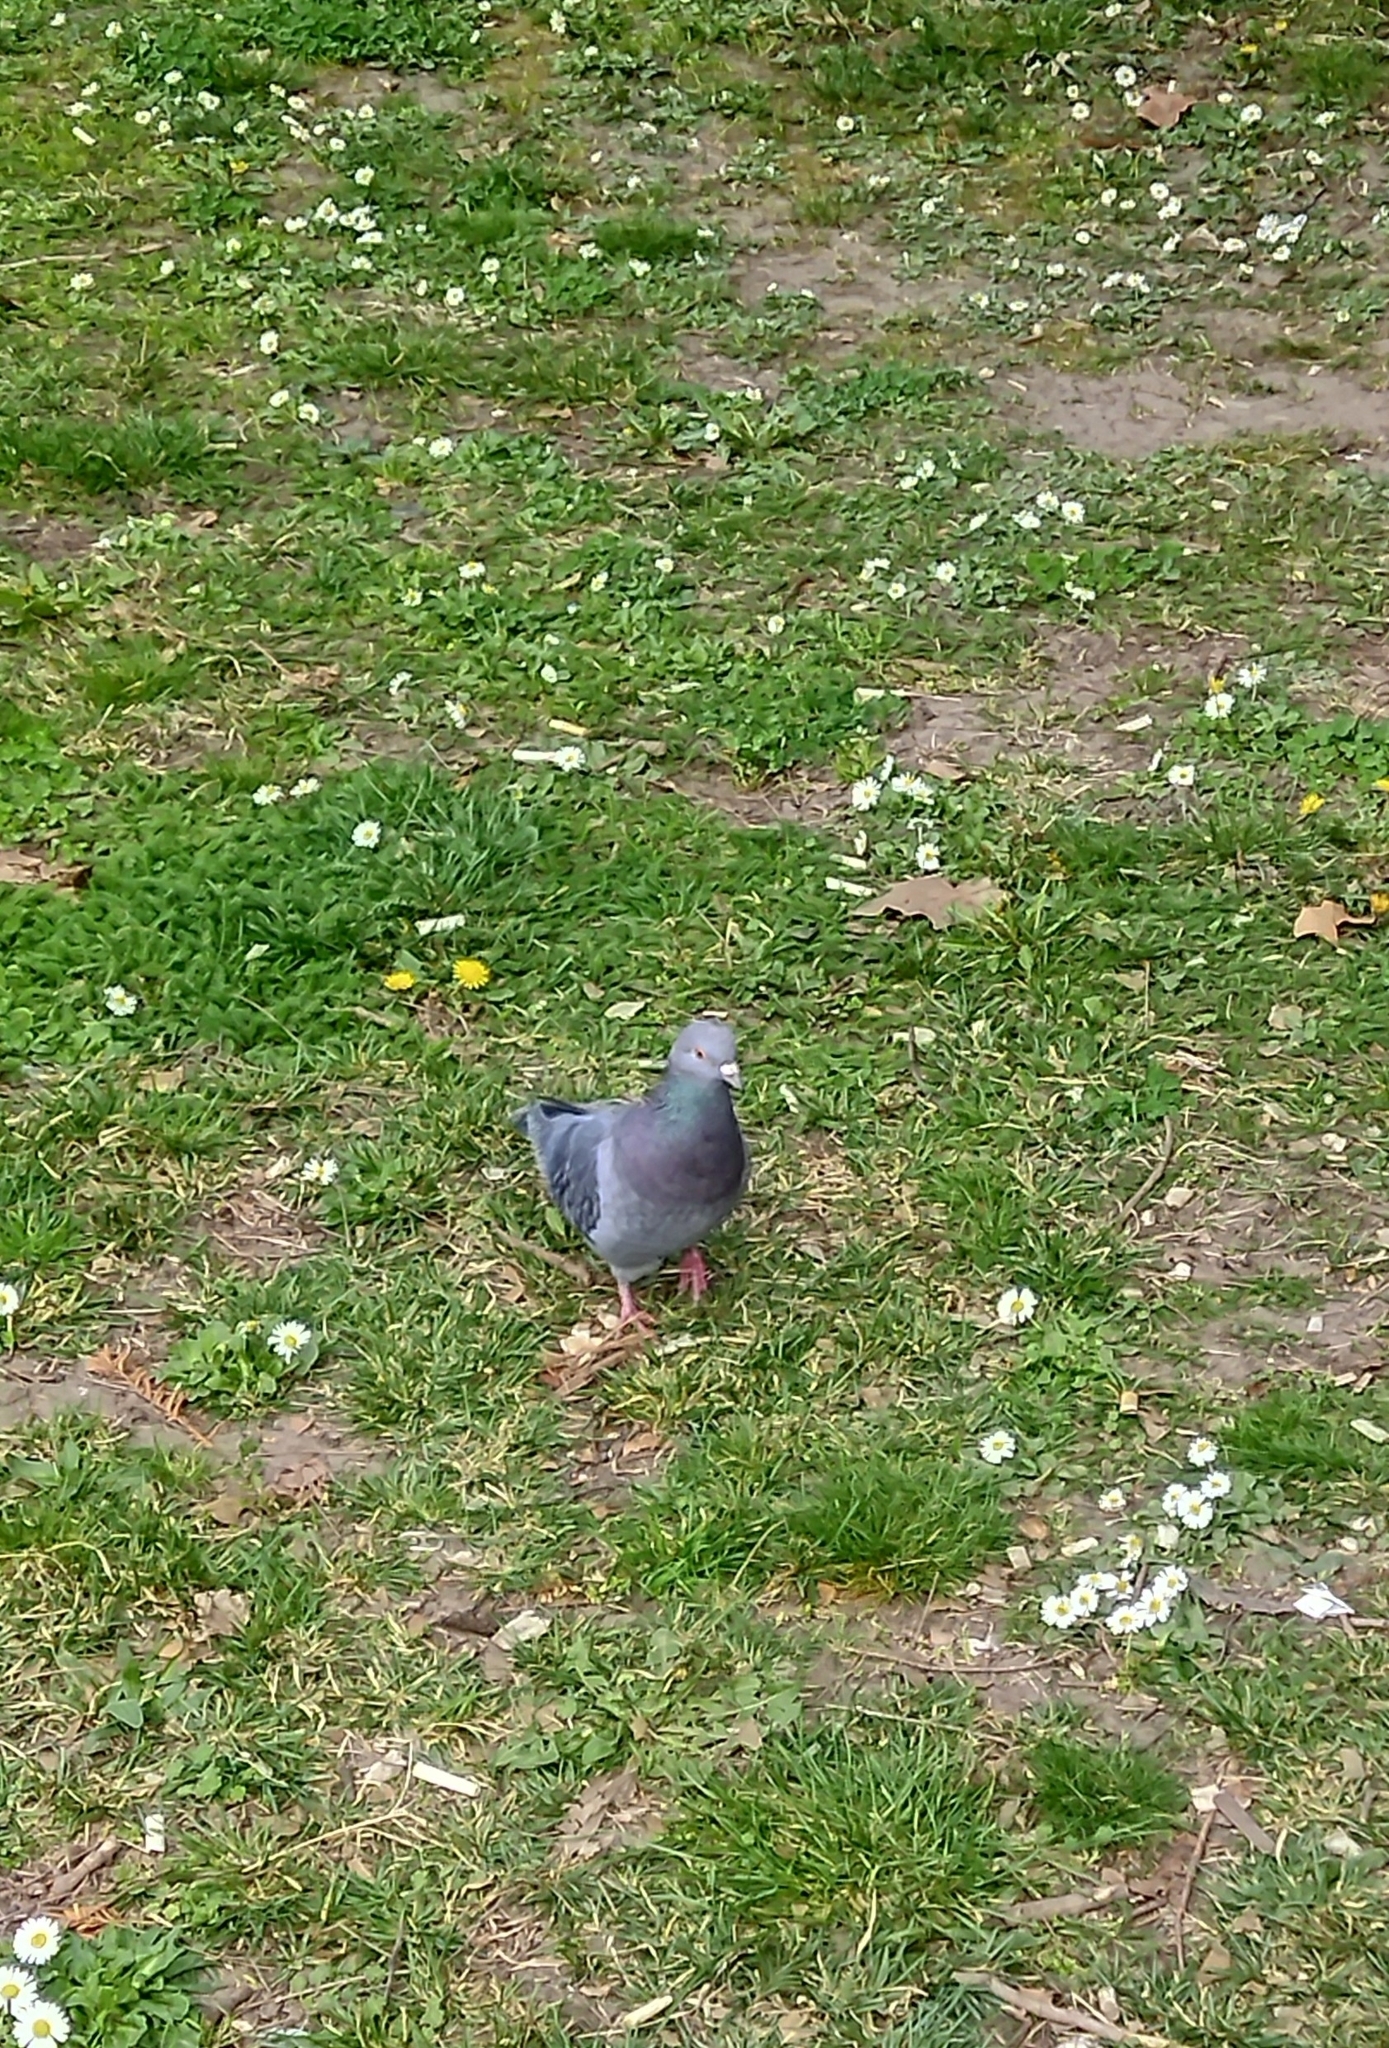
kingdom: Animalia
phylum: Chordata
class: Aves
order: Columbiformes
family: Columbidae
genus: Columba
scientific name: Columba livia
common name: Rock pigeon
